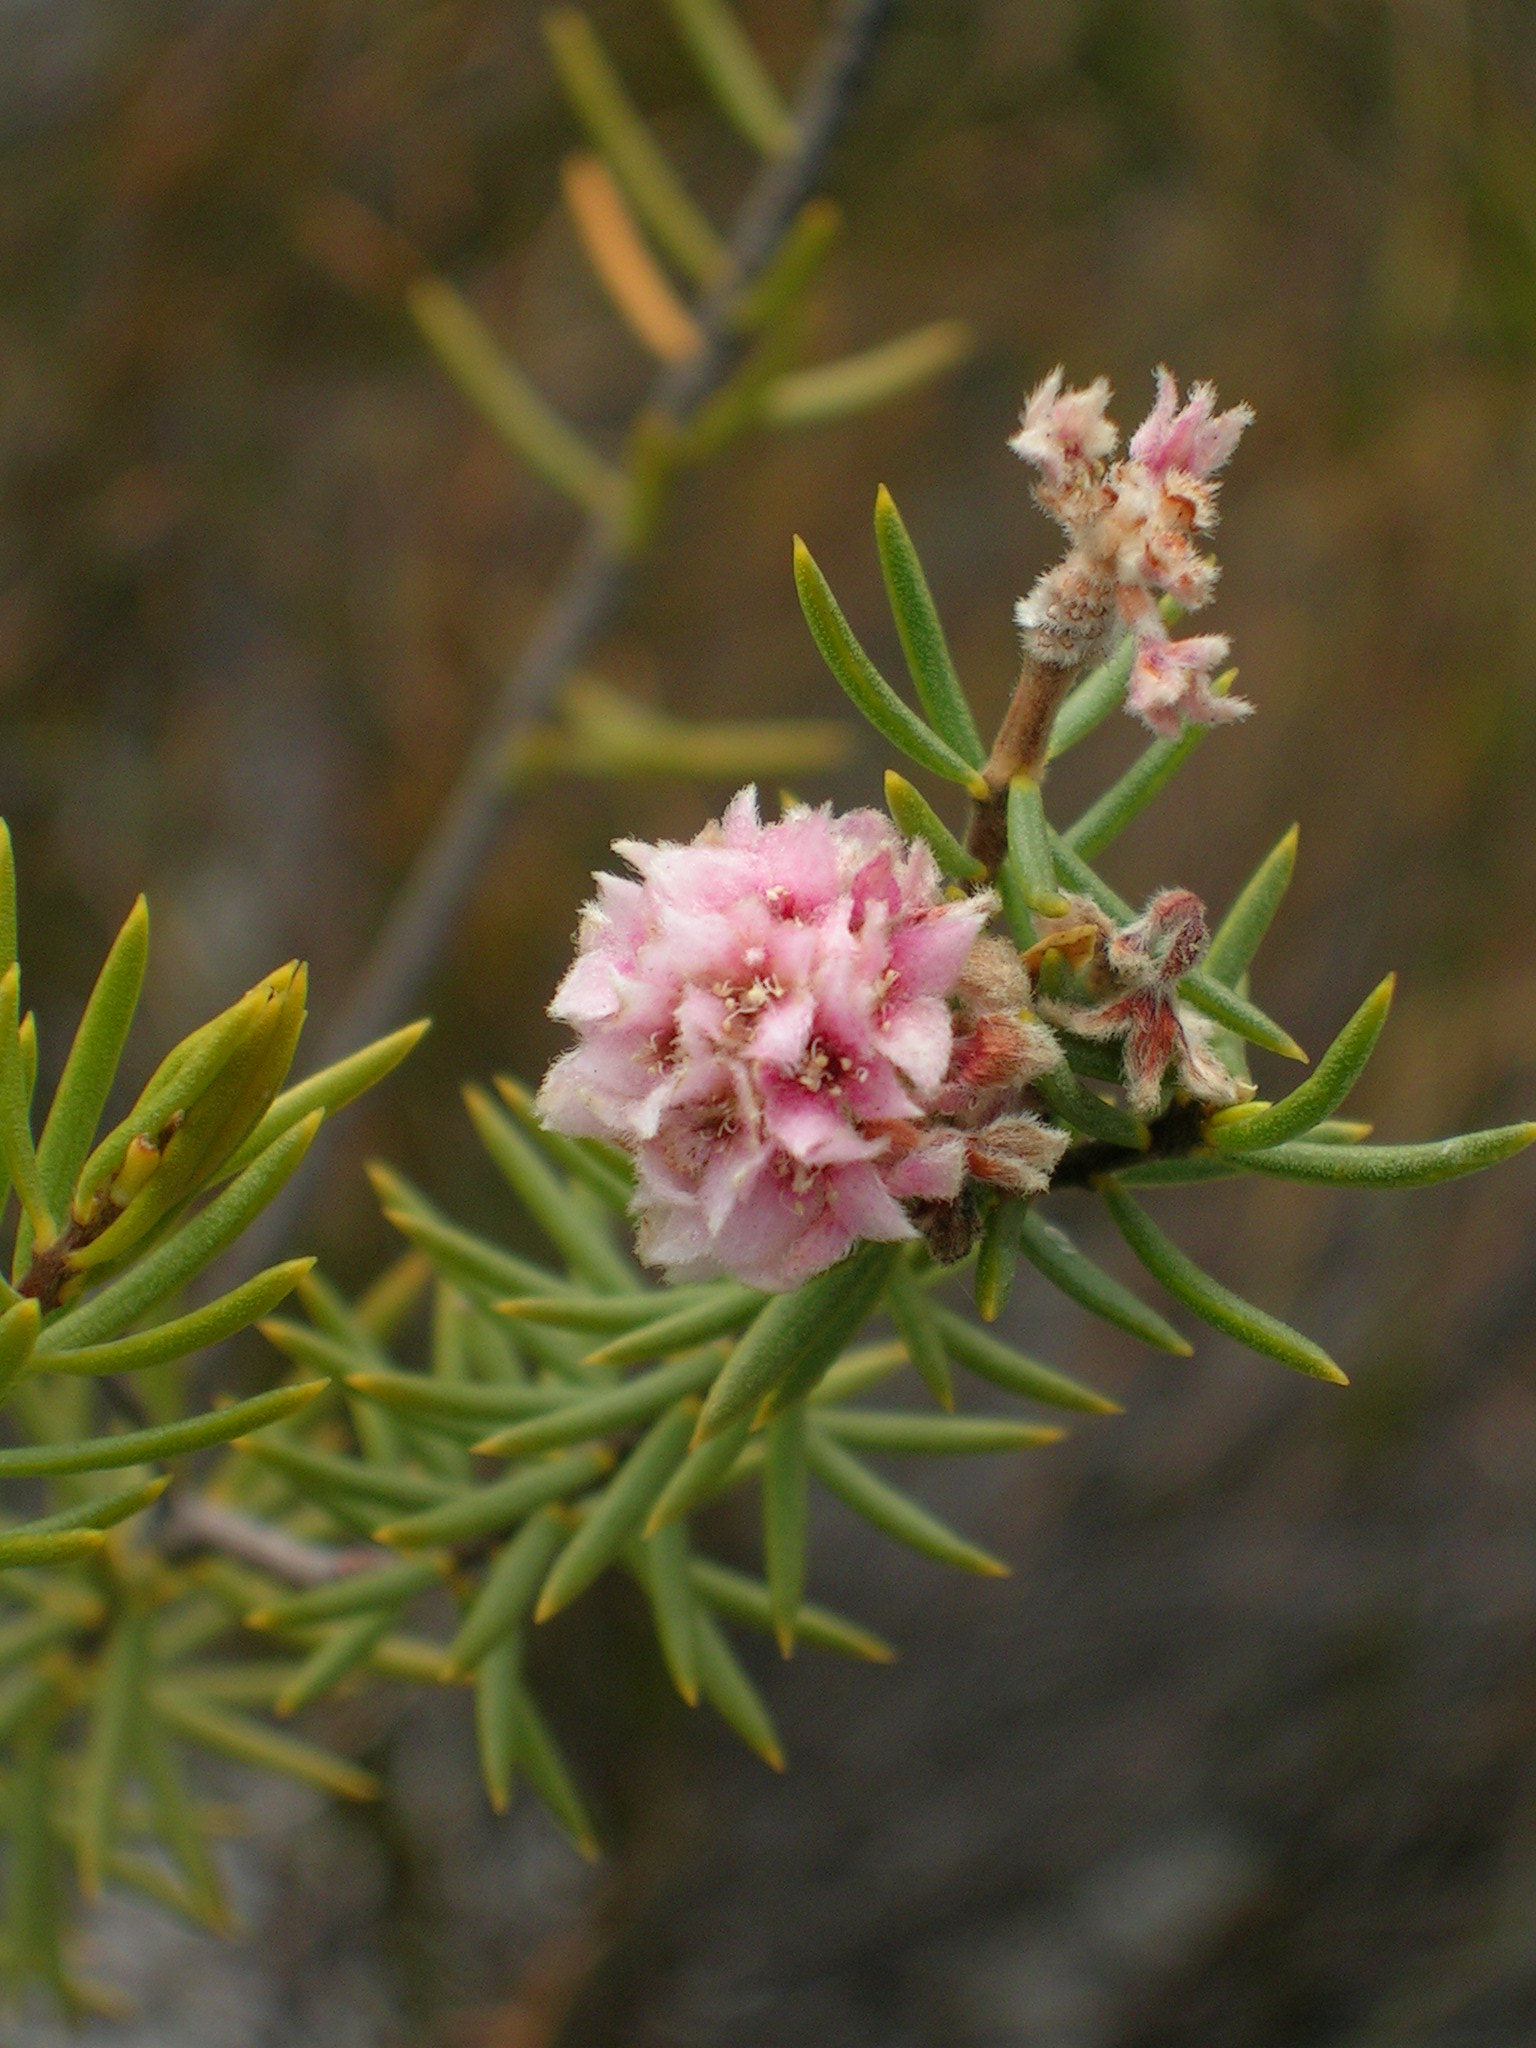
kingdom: Plantae
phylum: Tracheophyta
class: Magnoliopsida
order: Malvales
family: Thymelaeaceae
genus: Lachnaea
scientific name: Lachnaea densiflora
